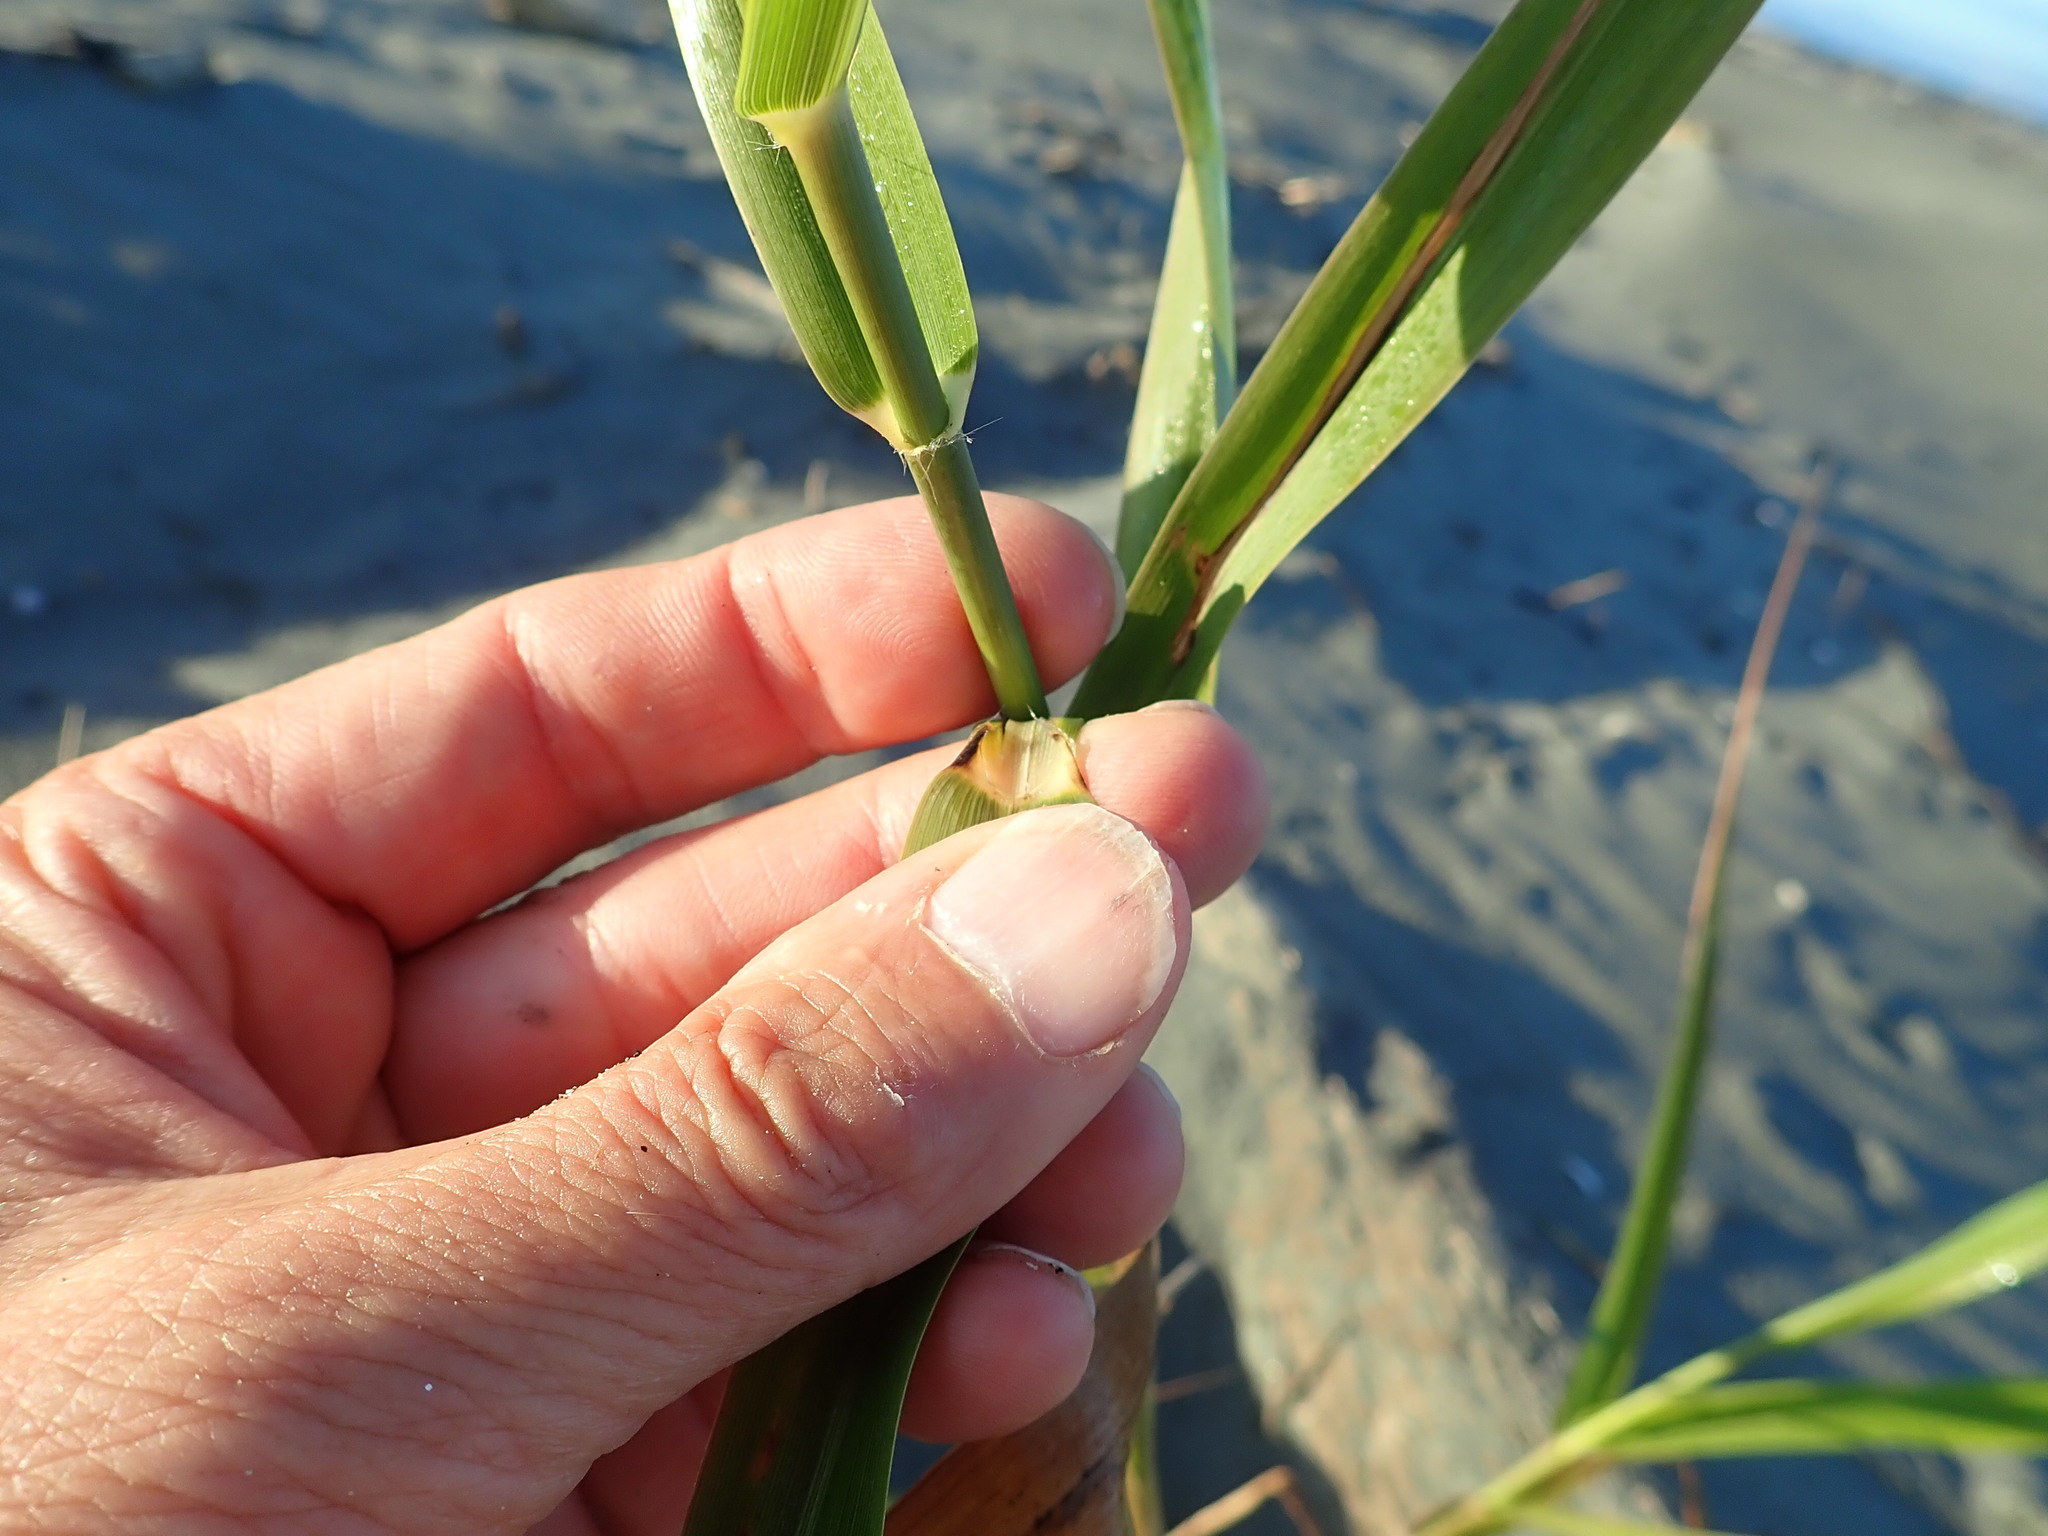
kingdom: Plantae
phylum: Tracheophyta
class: Liliopsida
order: Poales
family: Poaceae
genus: Phragmites
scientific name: Phragmites karka
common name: Tropical reed
